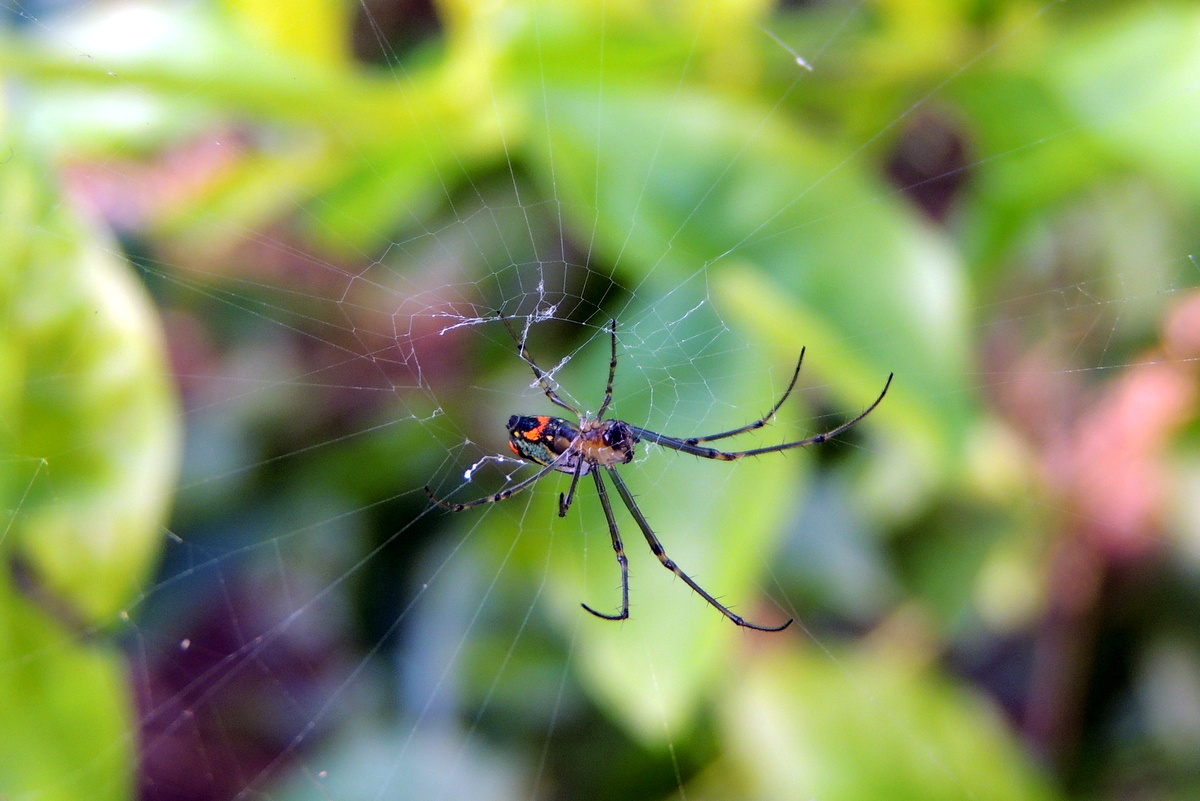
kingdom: Animalia
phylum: Arthropoda
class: Arachnida
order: Araneae
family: Tetragnathidae
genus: Leucauge
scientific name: Leucauge argyrobapta
